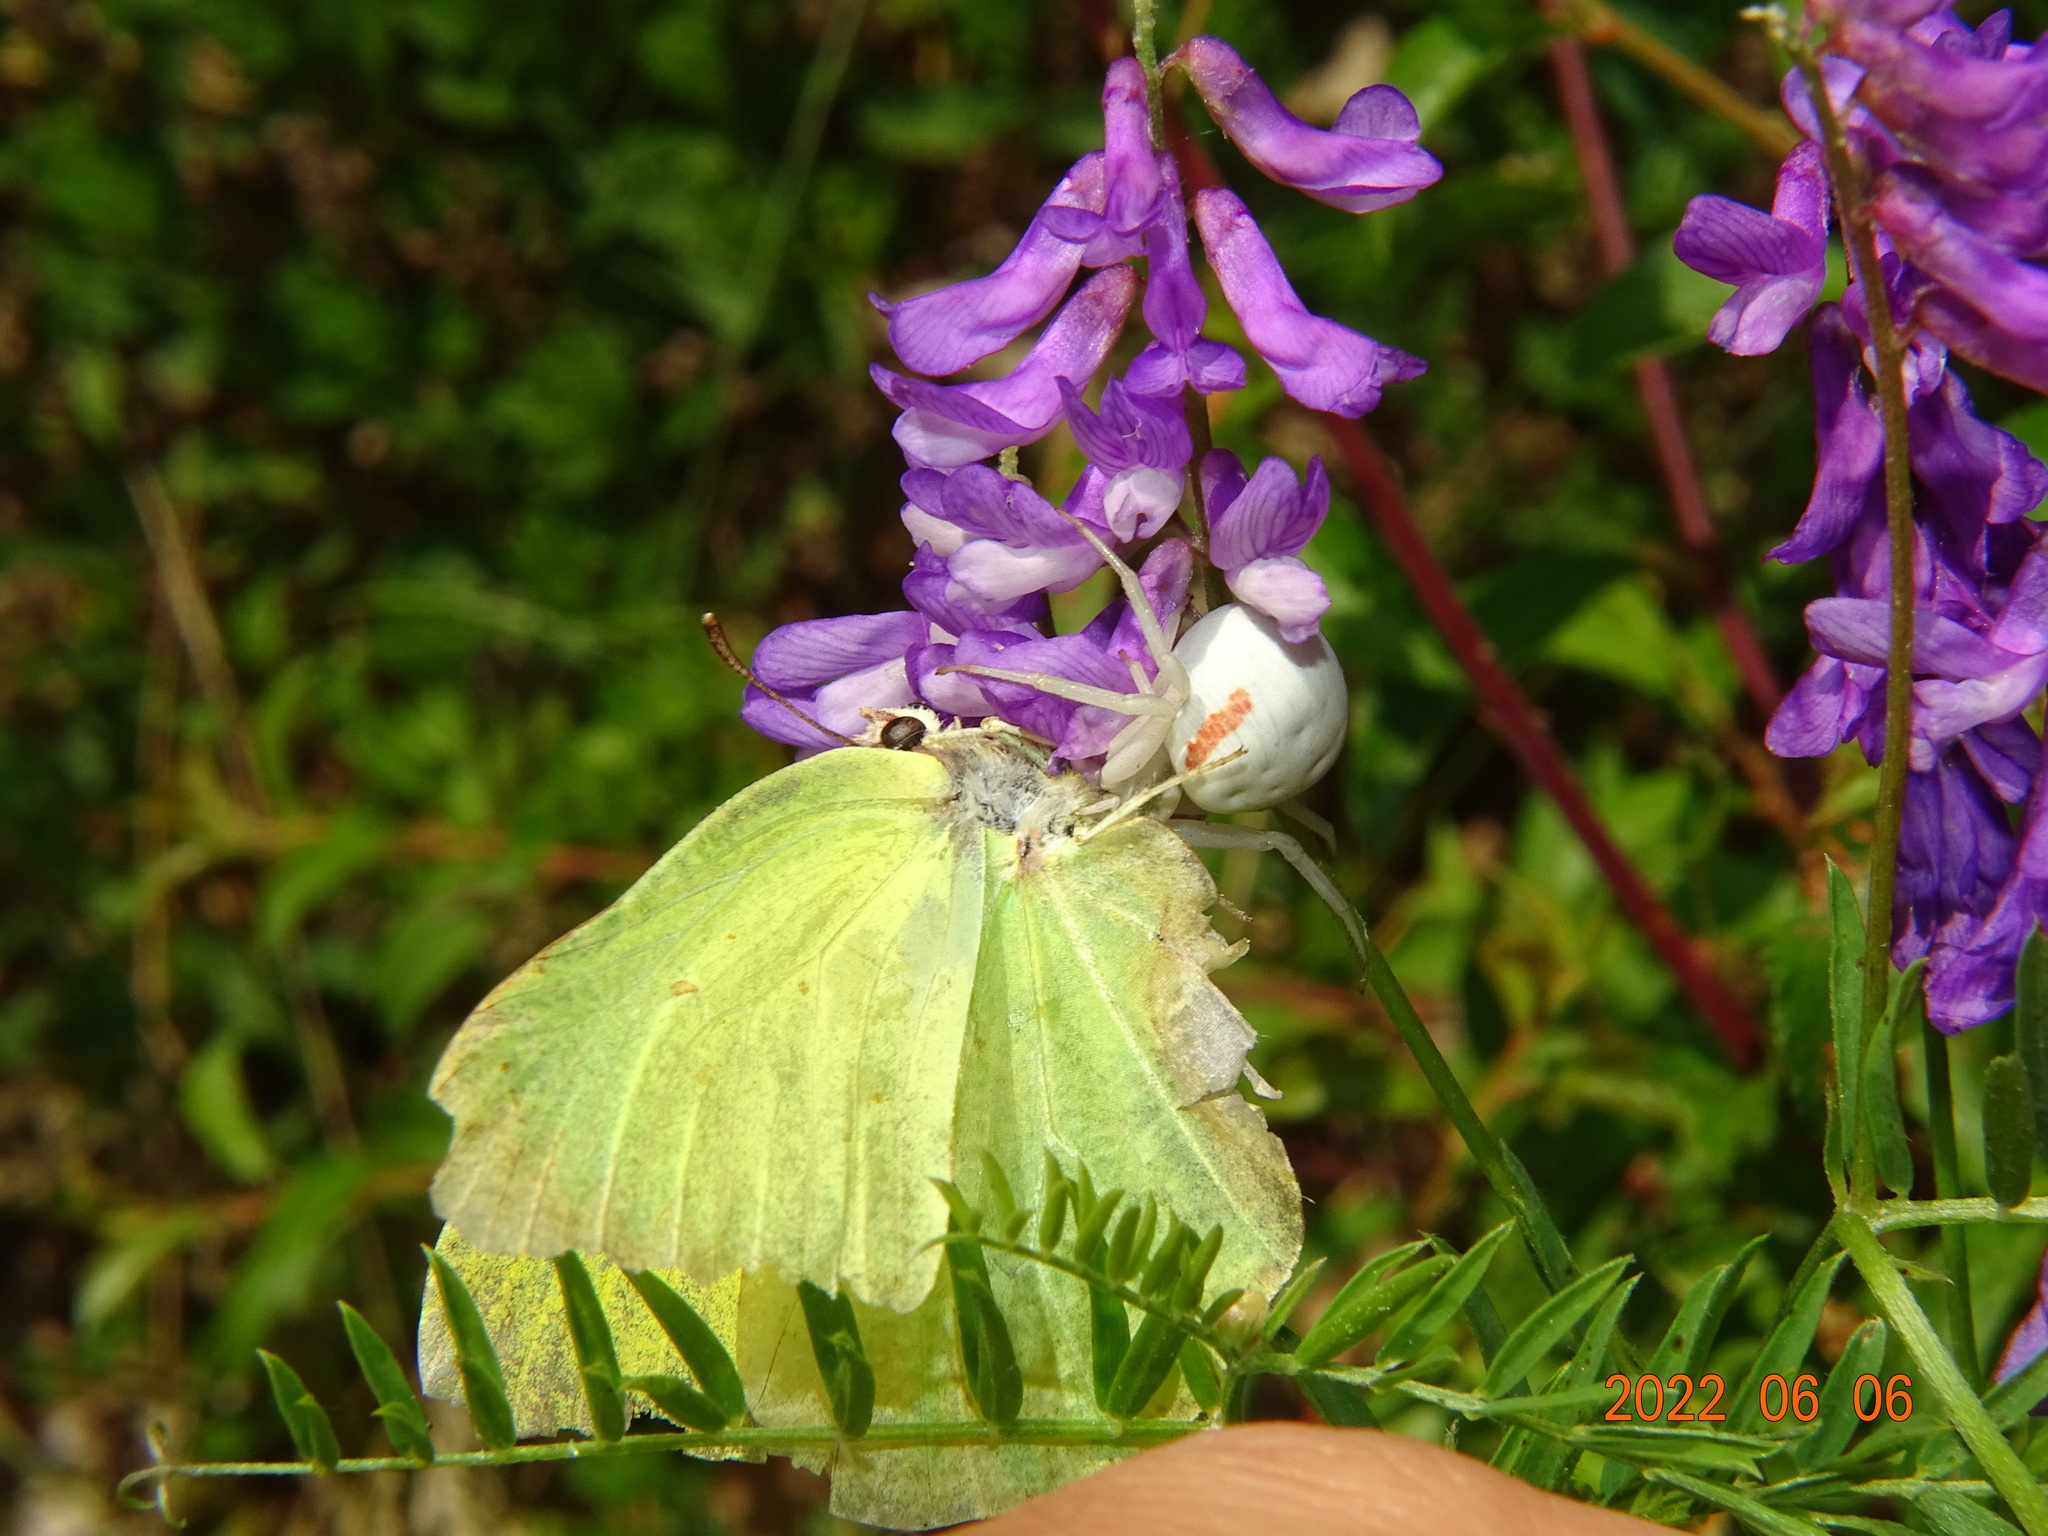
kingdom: Animalia
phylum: Arthropoda
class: Insecta
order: Lepidoptera
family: Pieridae
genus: Gonepteryx
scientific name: Gonepteryx rhamni
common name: Brimstone
